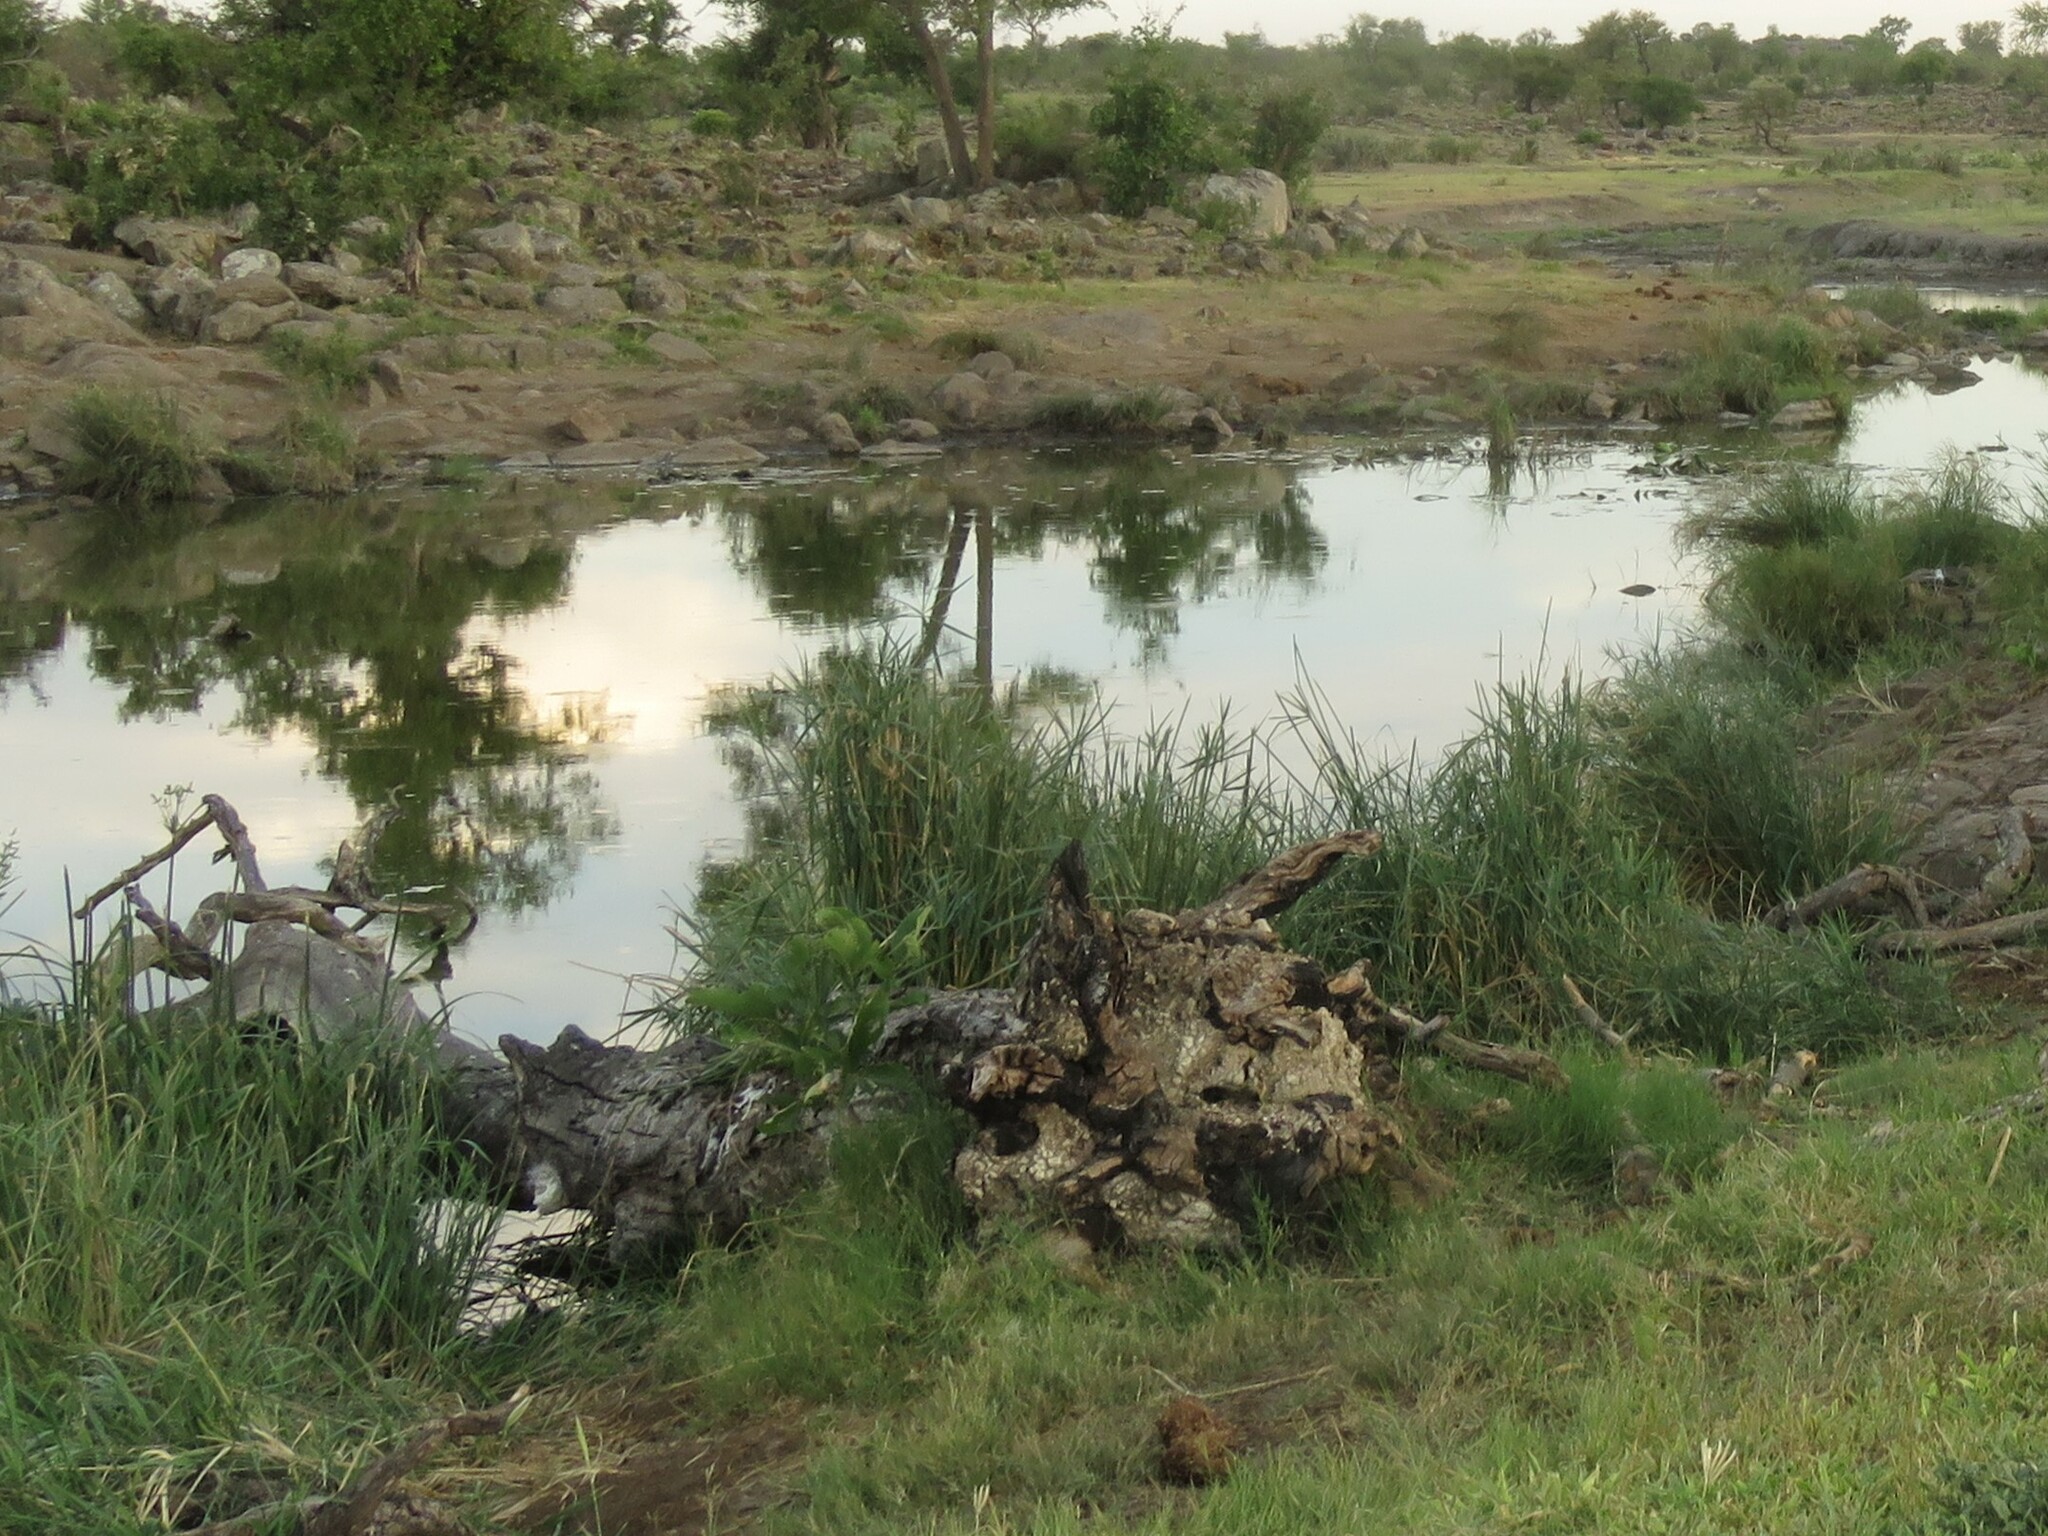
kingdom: Plantae
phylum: Tracheophyta
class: Liliopsida
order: Poales
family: Cyperaceae
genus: Cyperus
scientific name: Cyperus textilis
